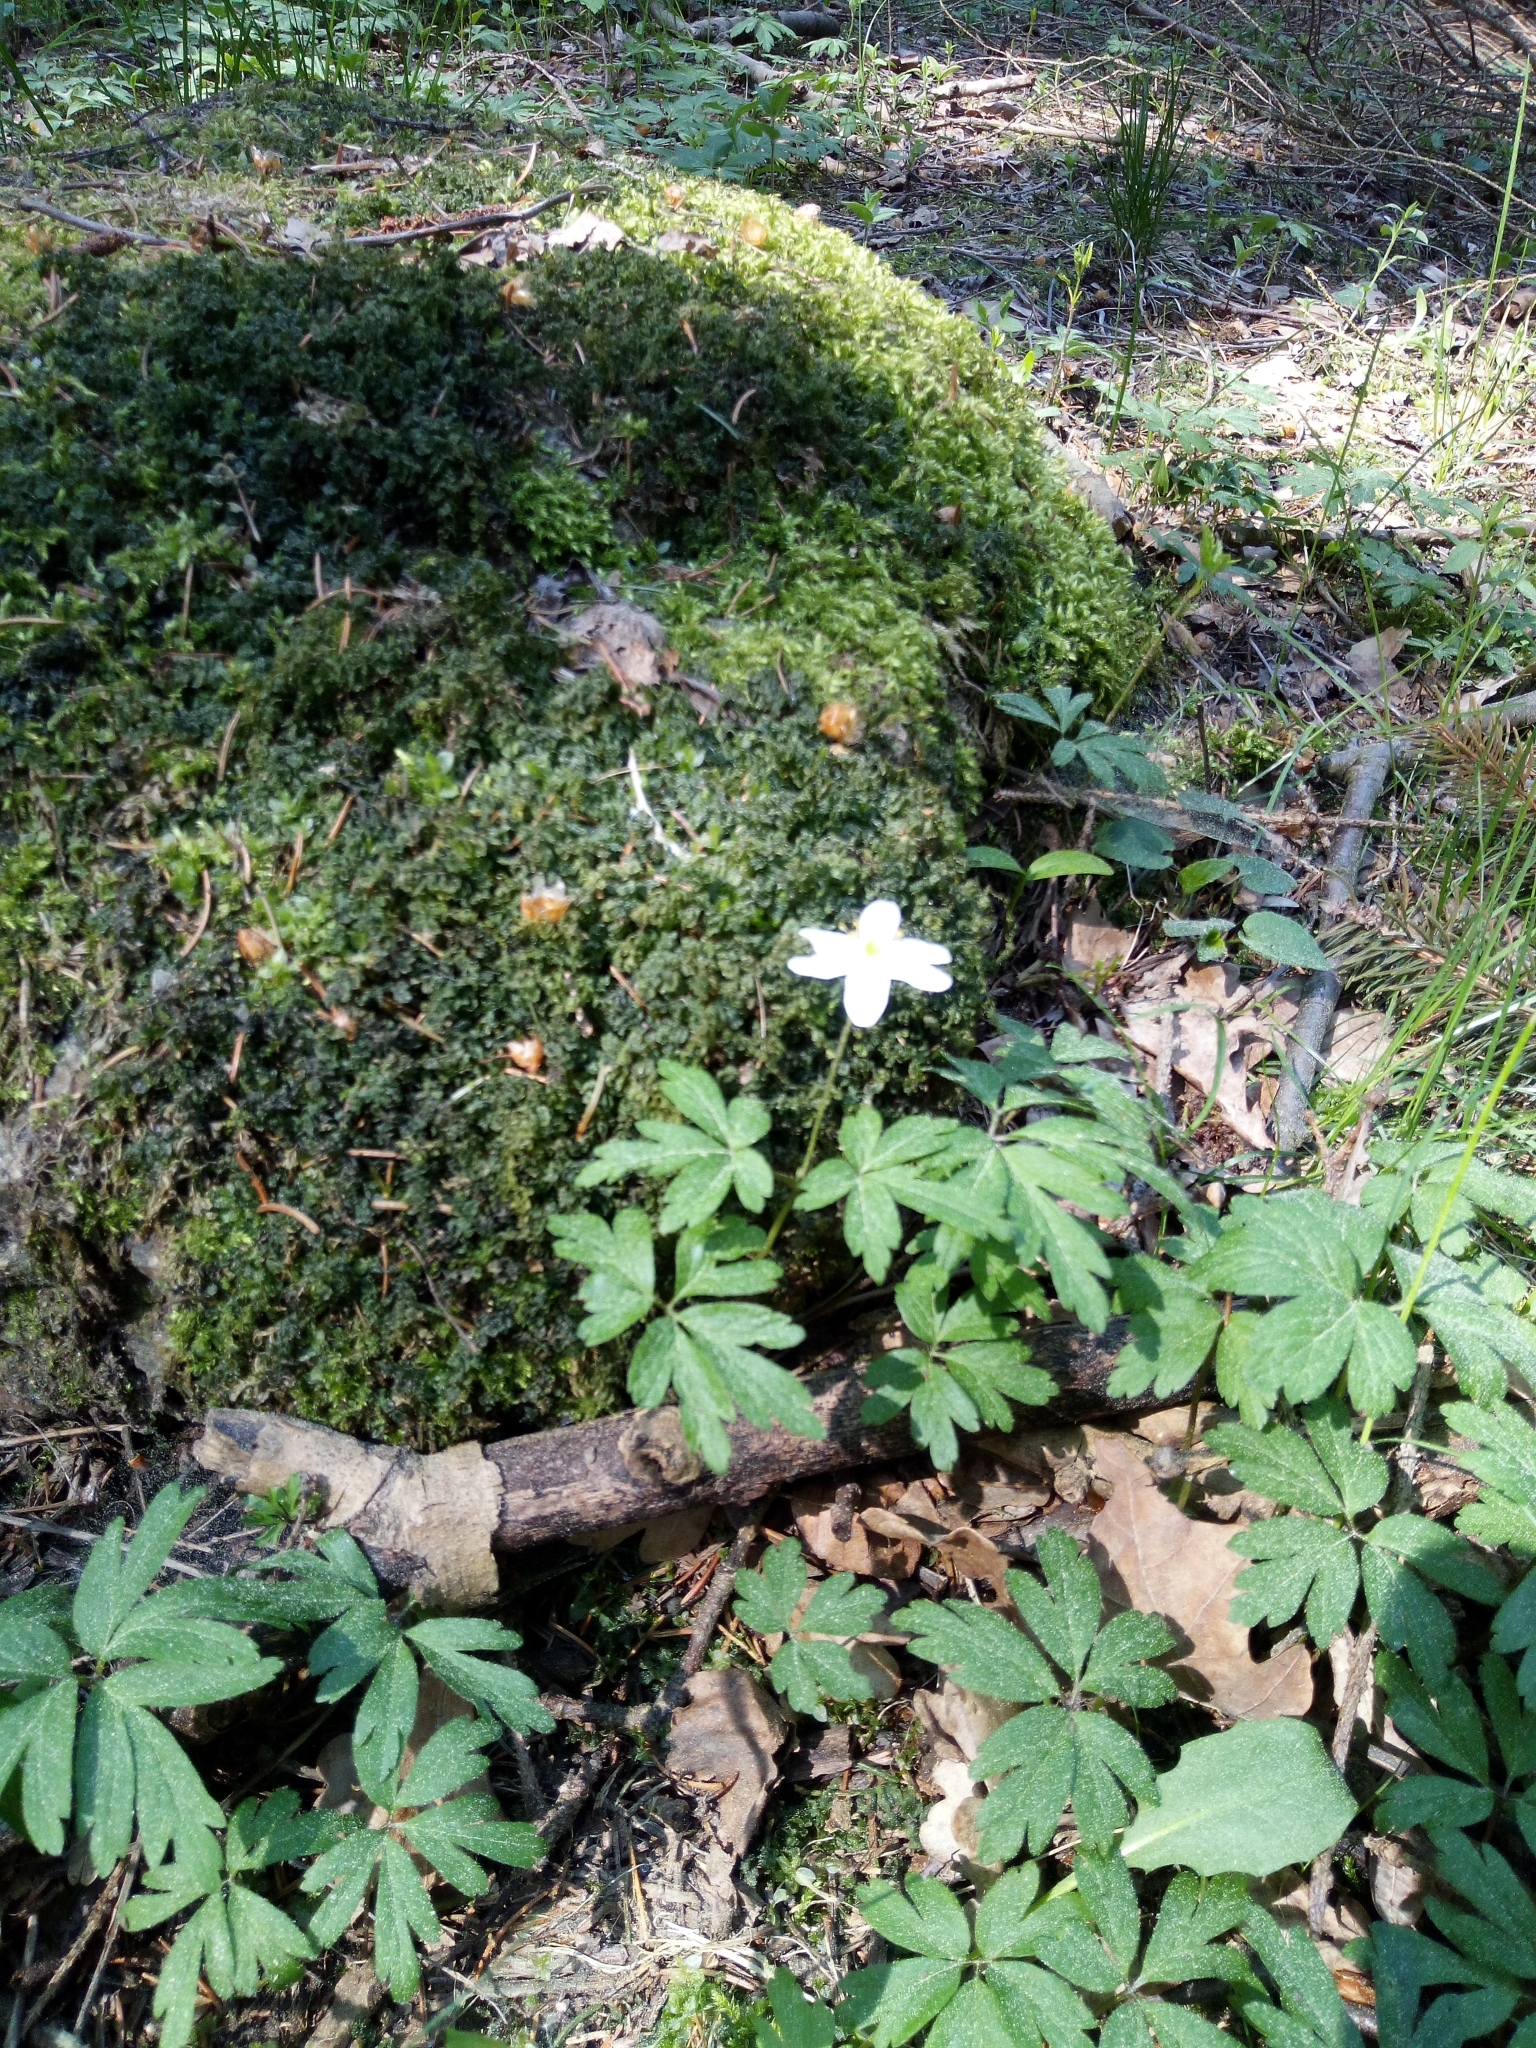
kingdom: Plantae
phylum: Tracheophyta
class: Magnoliopsida
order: Ranunculales
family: Ranunculaceae
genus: Anemone
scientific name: Anemone nemorosa
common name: Wood anemone
